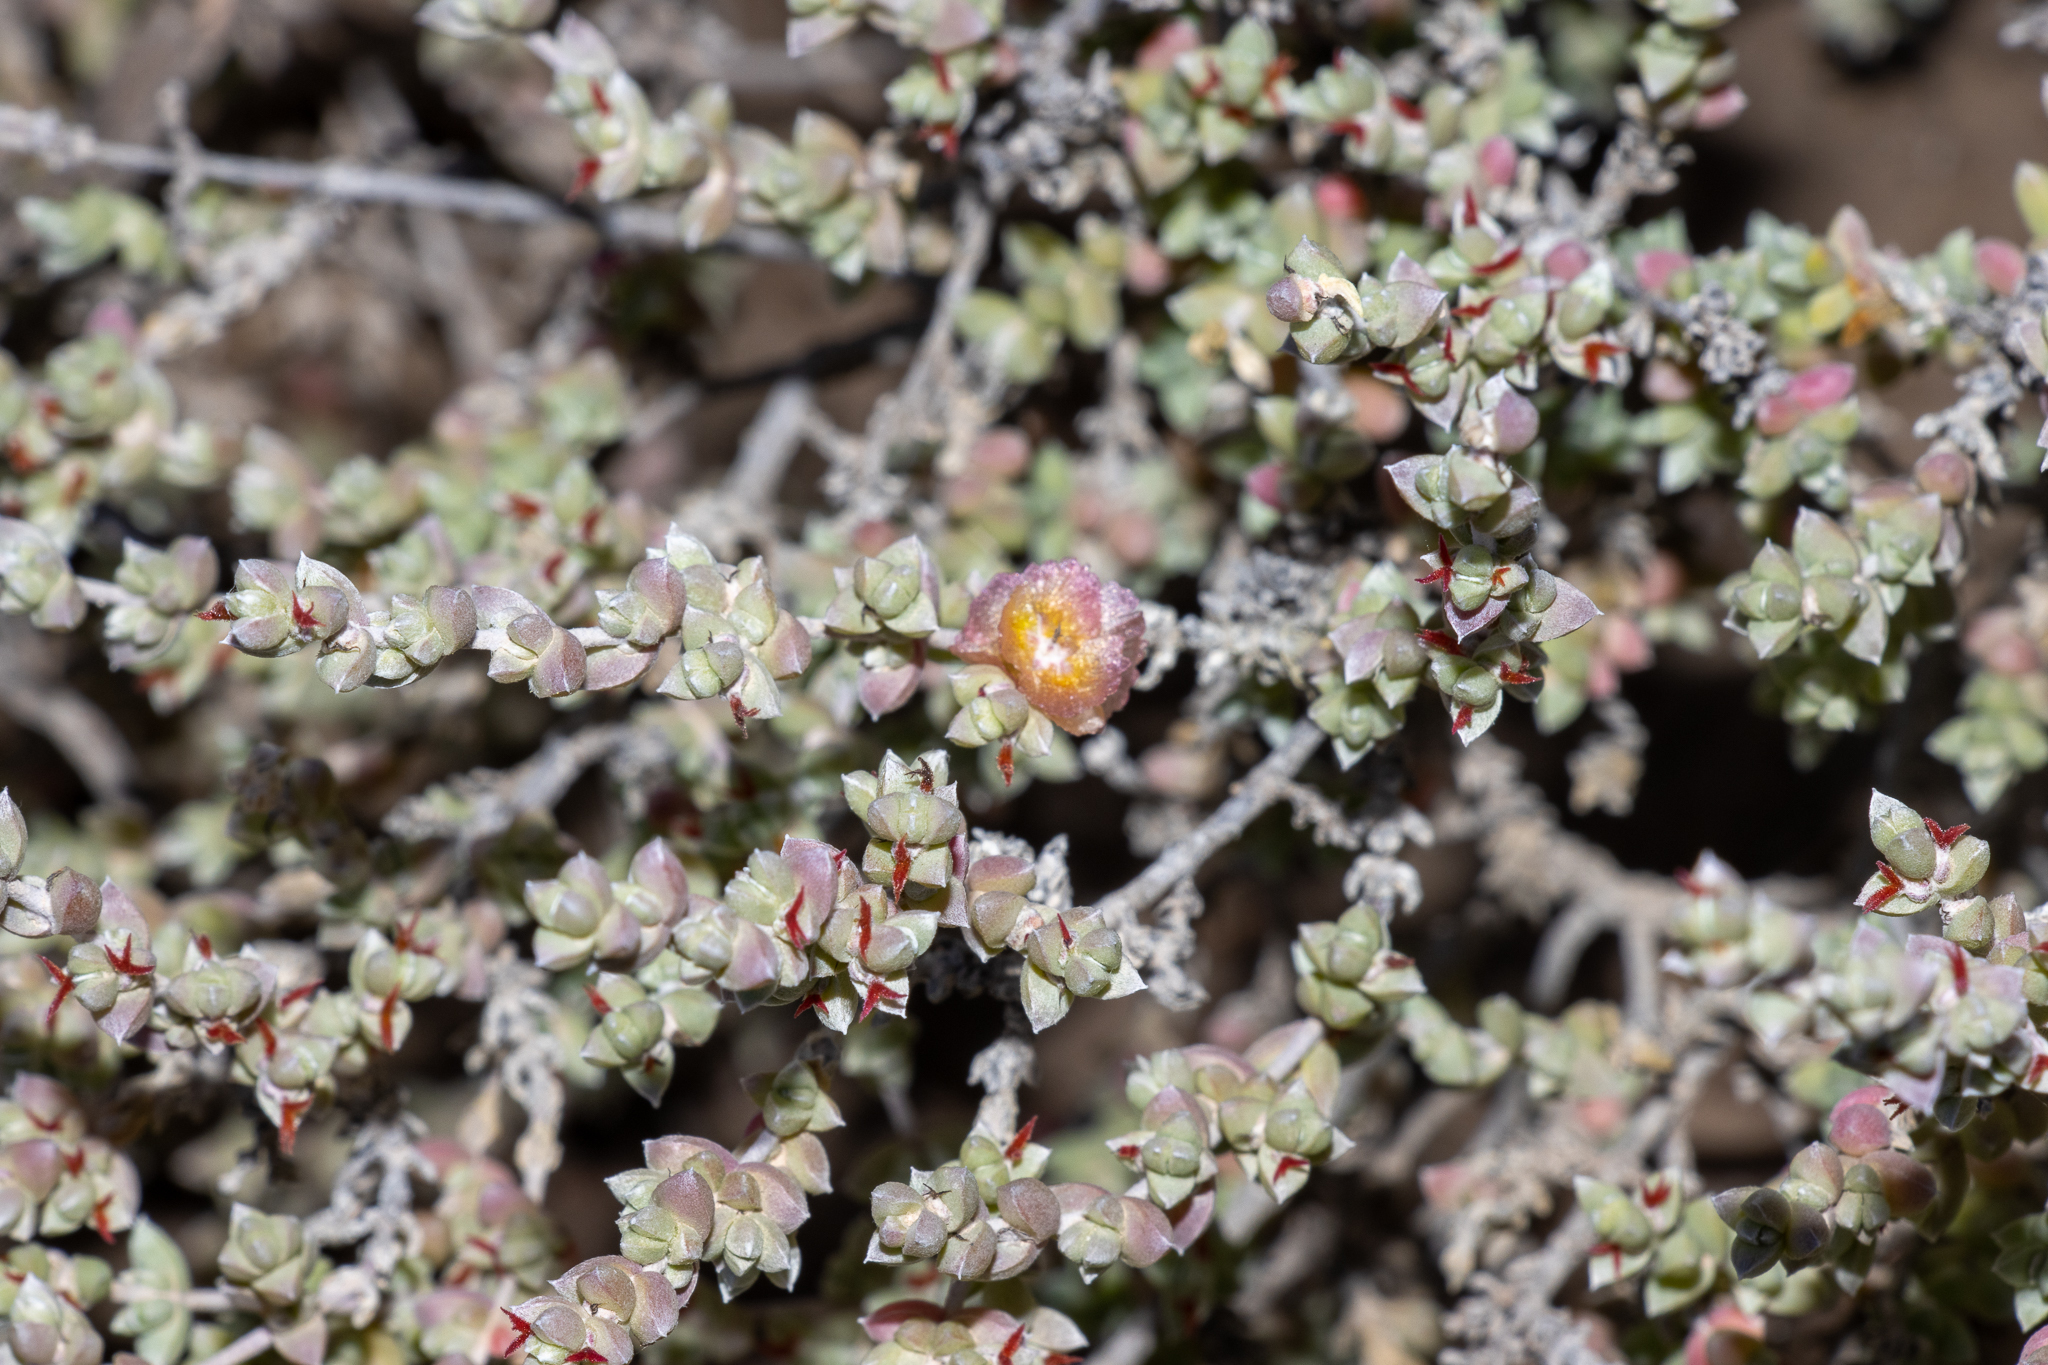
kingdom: Plantae
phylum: Tracheophyta
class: Magnoliopsida
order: Caryophyllales
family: Amaranthaceae
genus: Maireana
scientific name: Maireana oppositifolia
